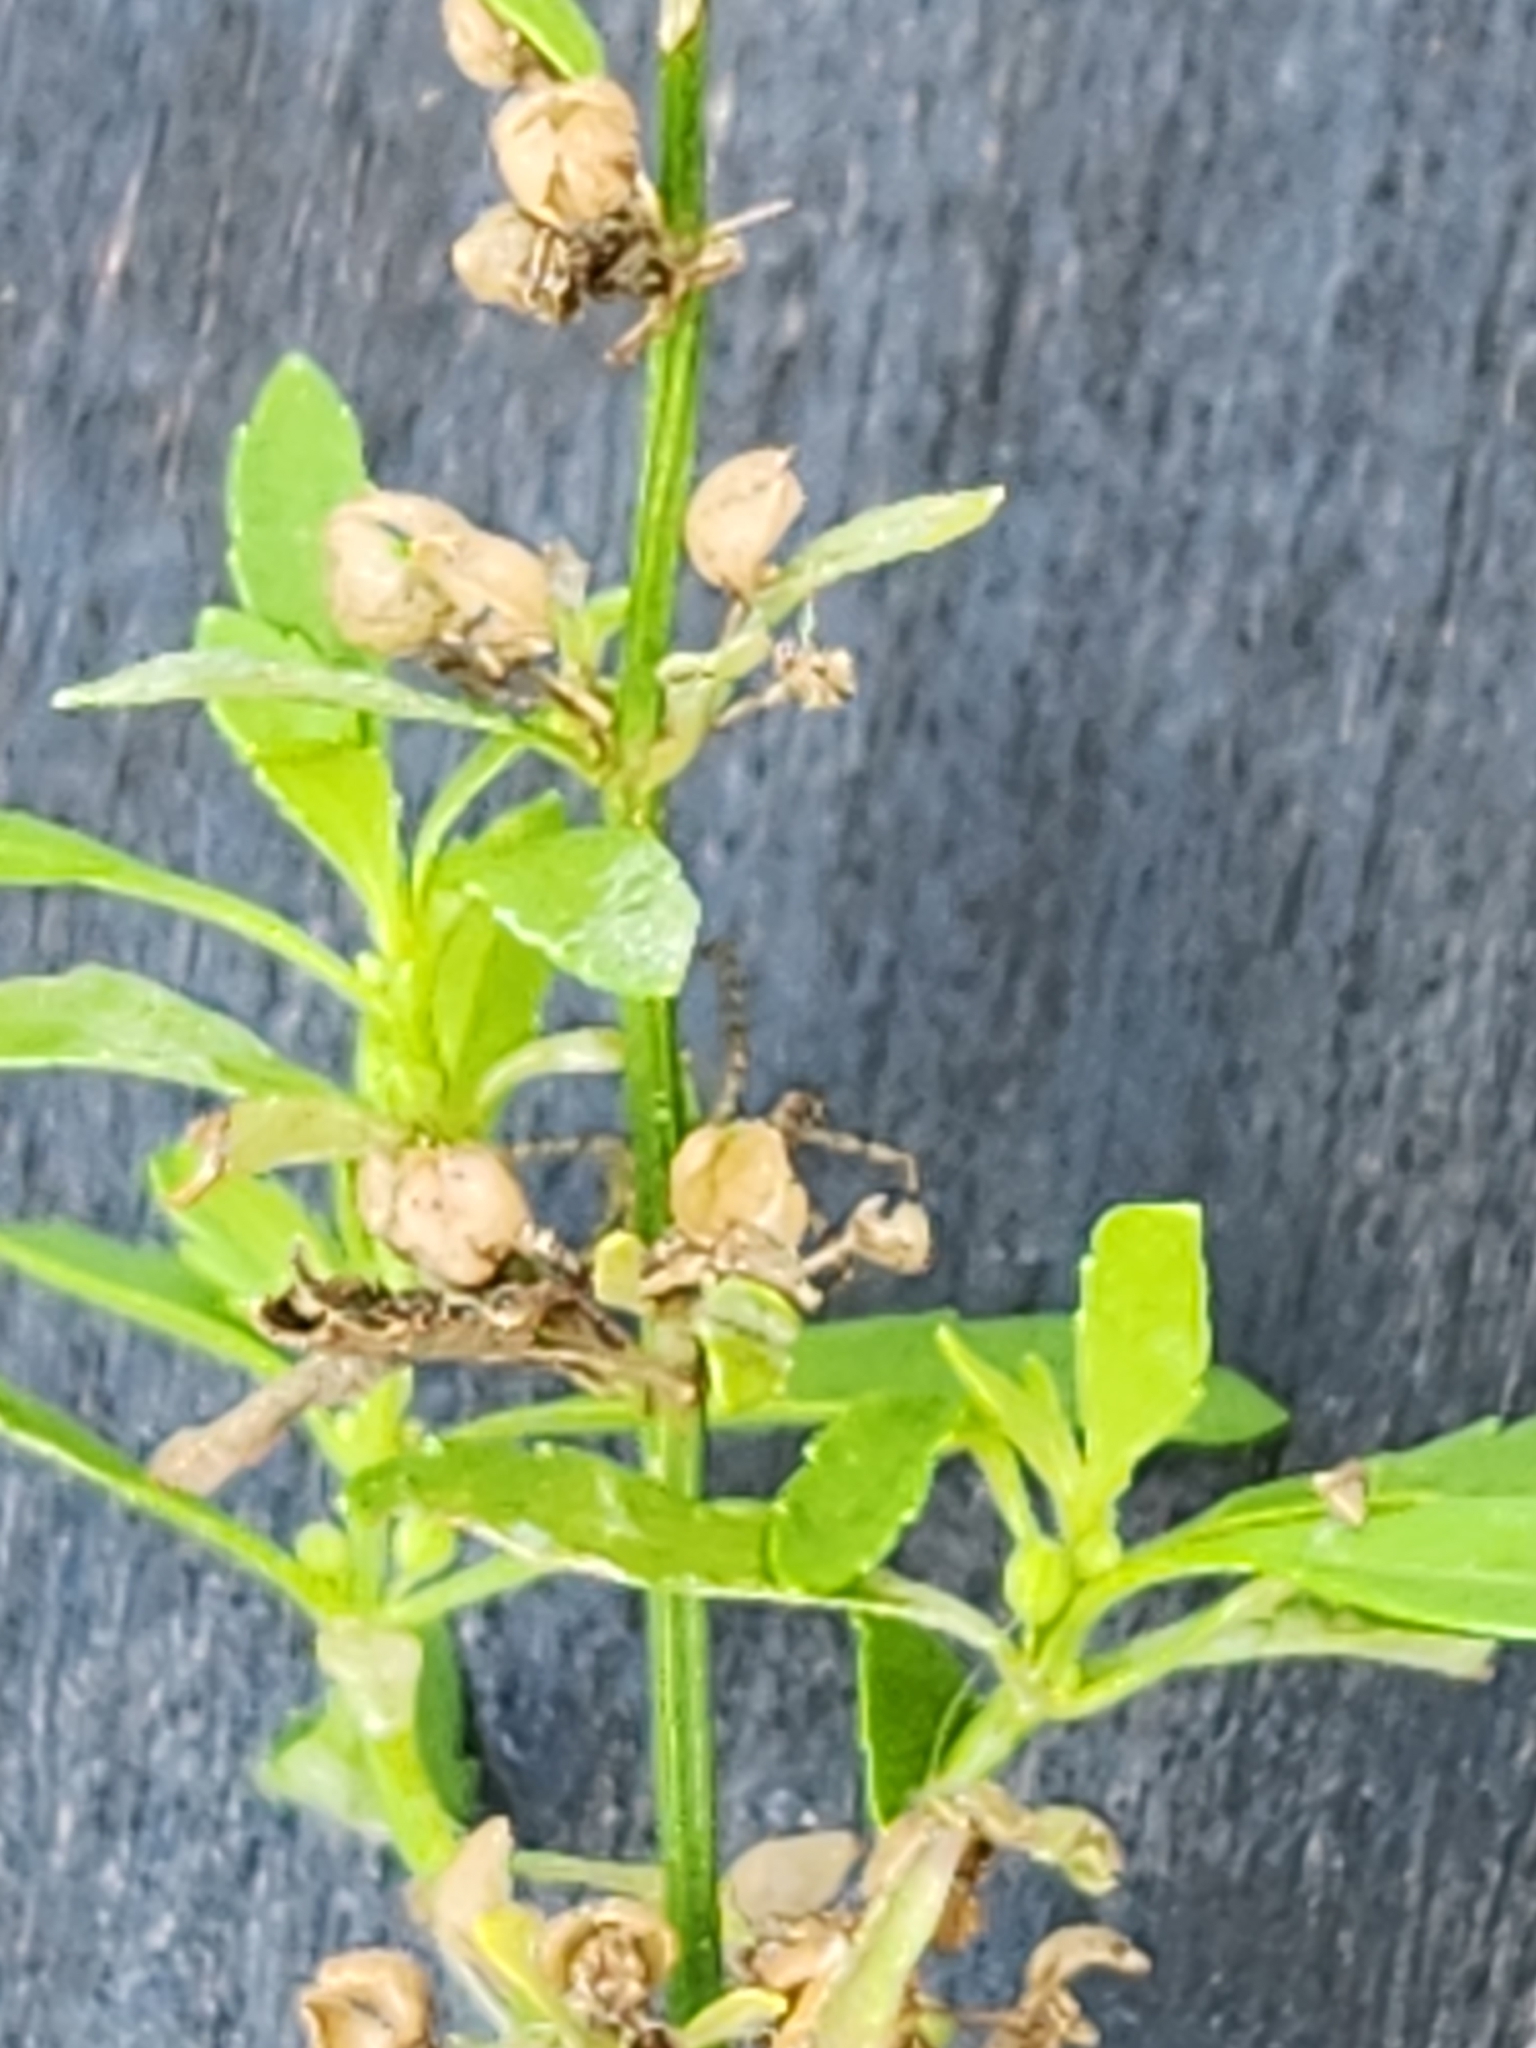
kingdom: Plantae
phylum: Tracheophyta
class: Magnoliopsida
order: Lamiales
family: Plantaginaceae
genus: Scoparia
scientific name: Scoparia dulcis
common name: Scoparia-weed
